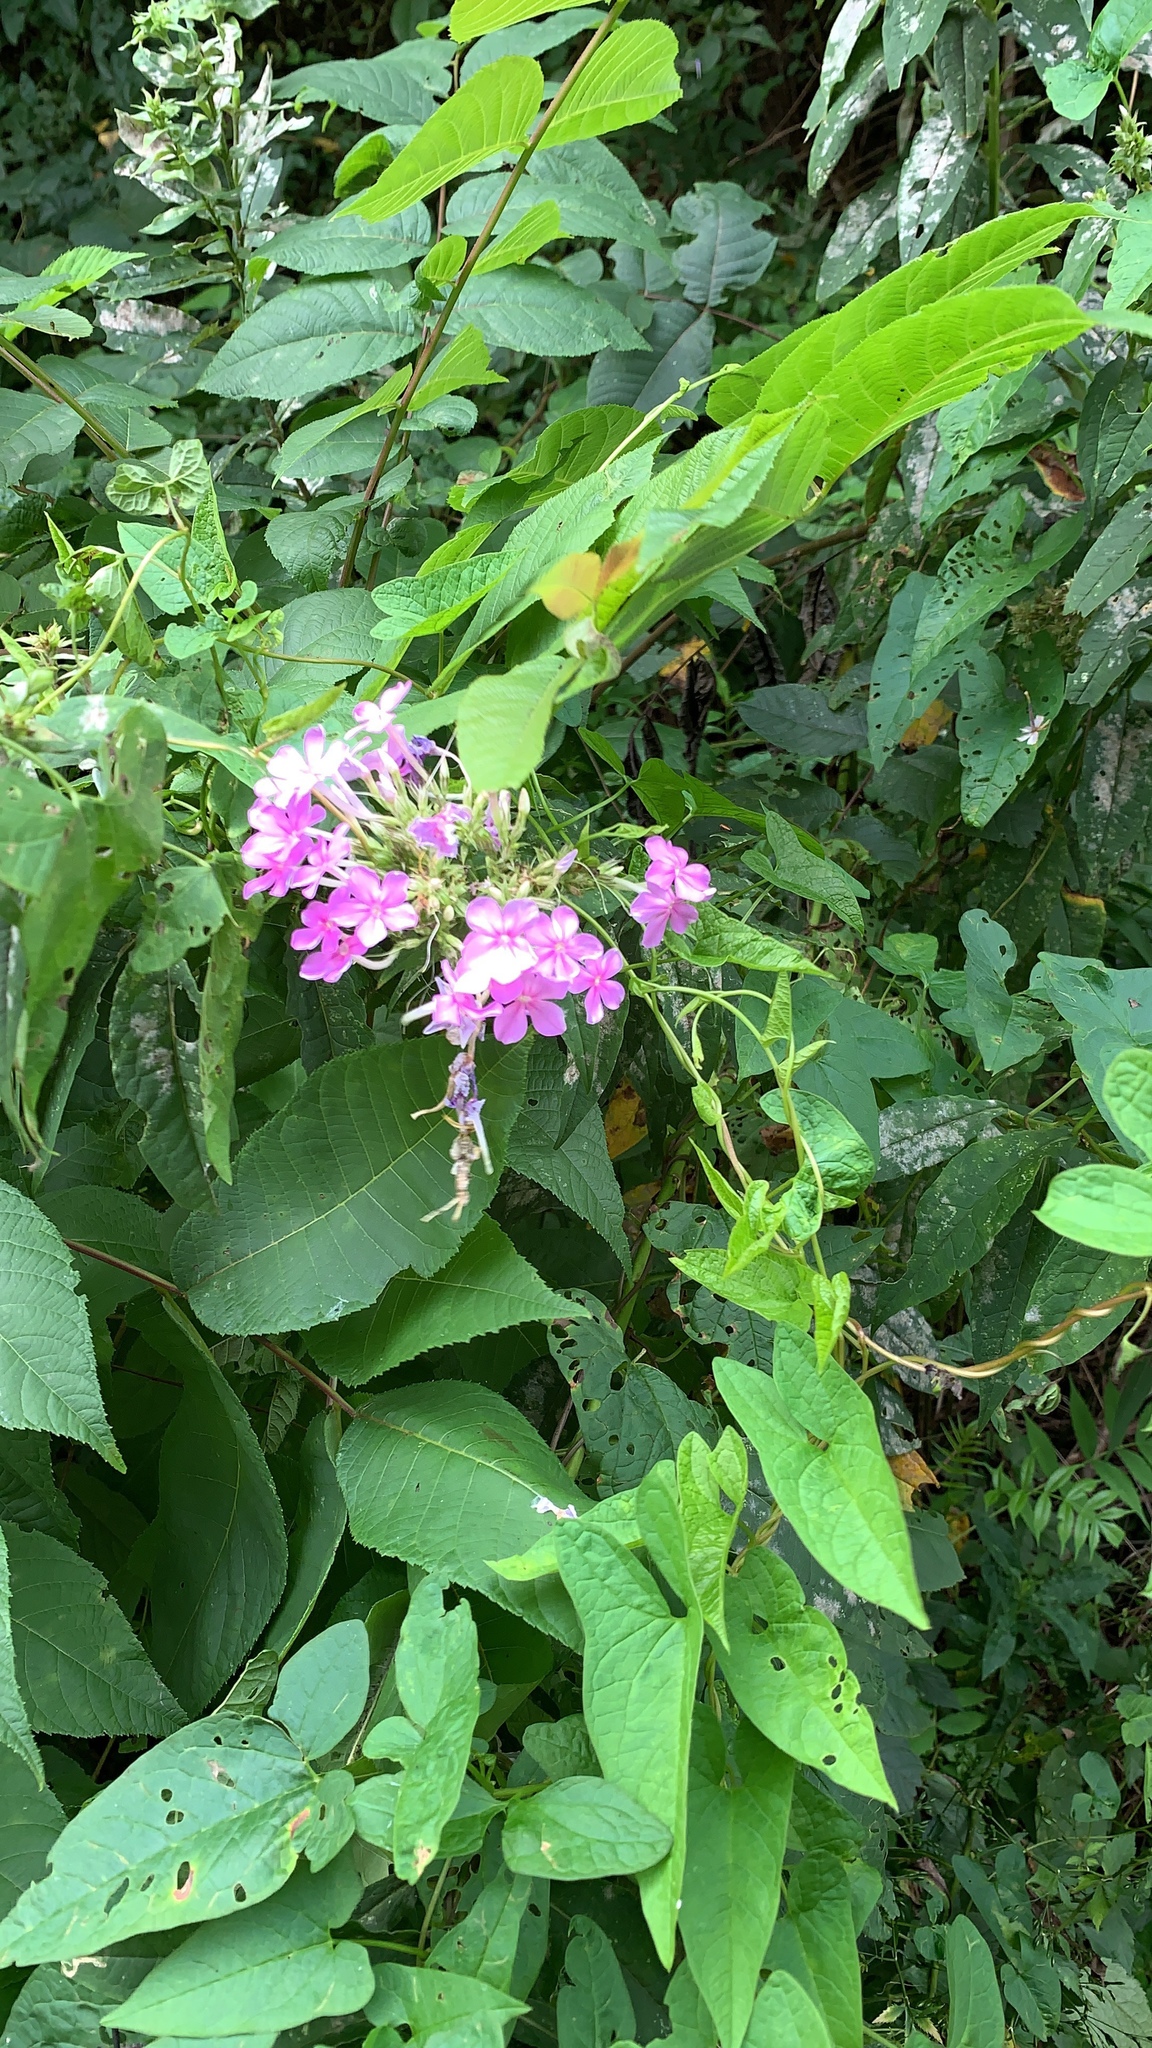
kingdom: Plantae
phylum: Tracheophyta
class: Magnoliopsida
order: Ericales
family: Polemoniaceae
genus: Phlox
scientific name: Phlox paniculata
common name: Fall phlox
